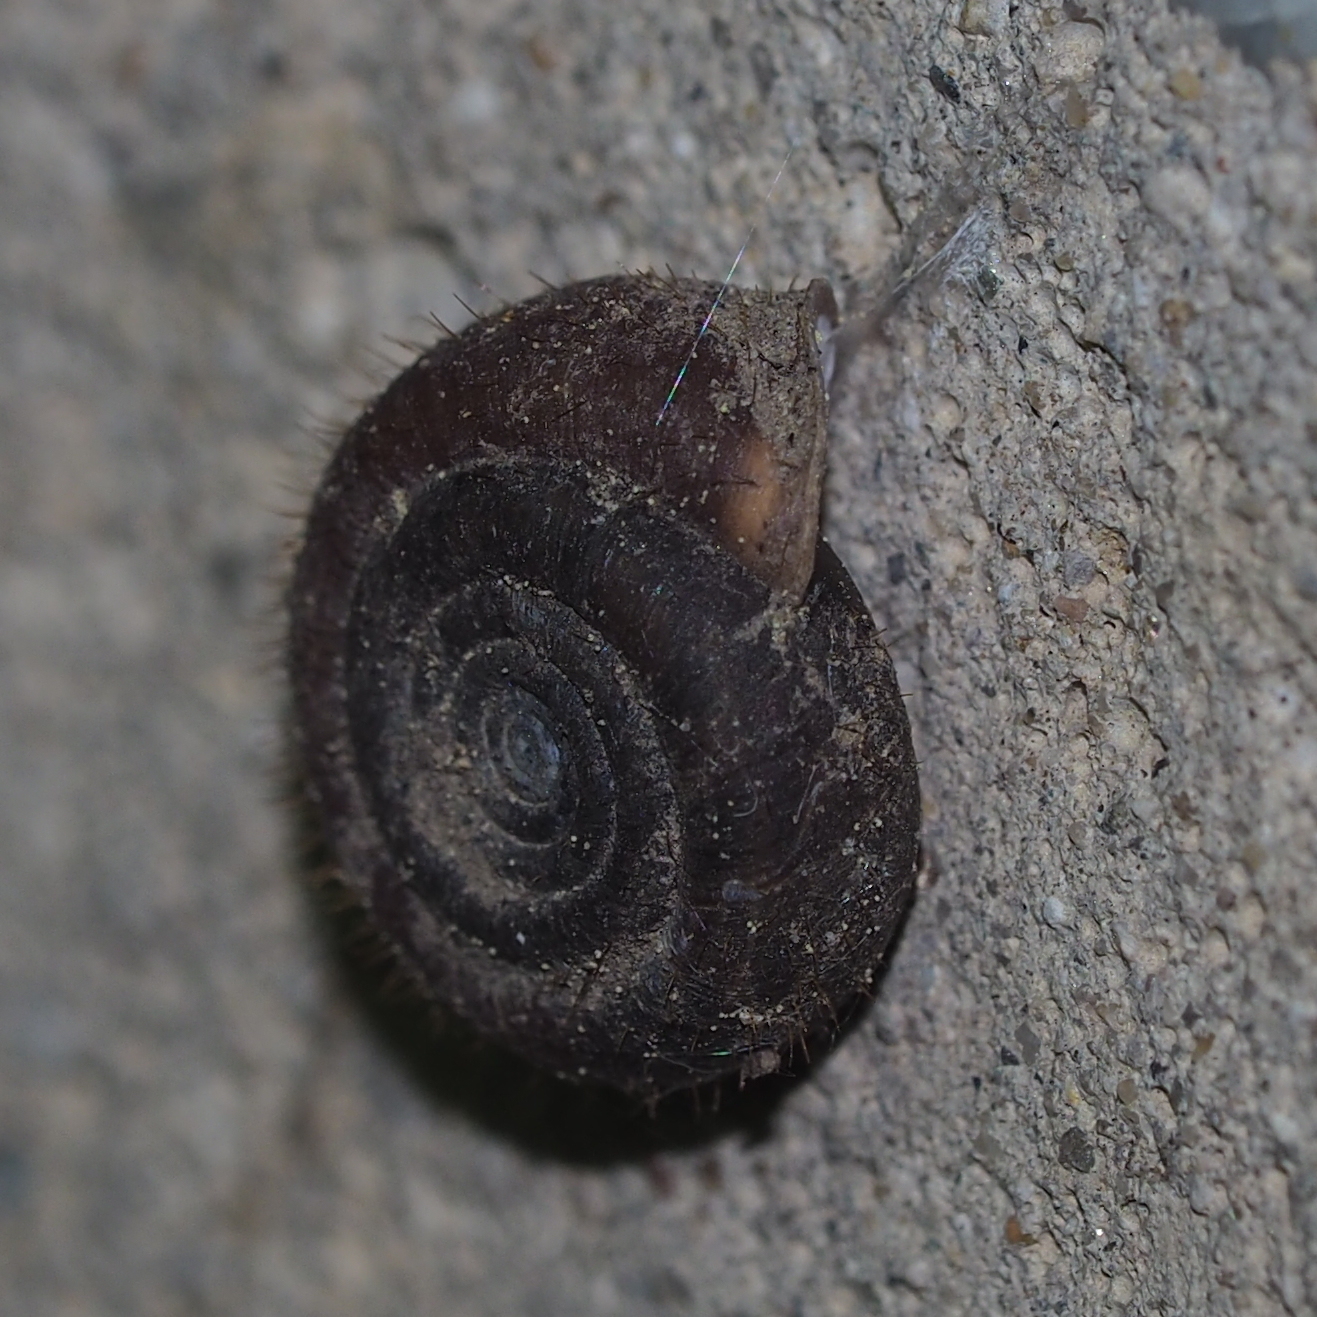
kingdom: Animalia
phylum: Mollusca
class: Gastropoda
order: Stylommatophora
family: Helicodontidae
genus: Helicodonta
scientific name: Helicodonta obvoluta
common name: Cheese snail
